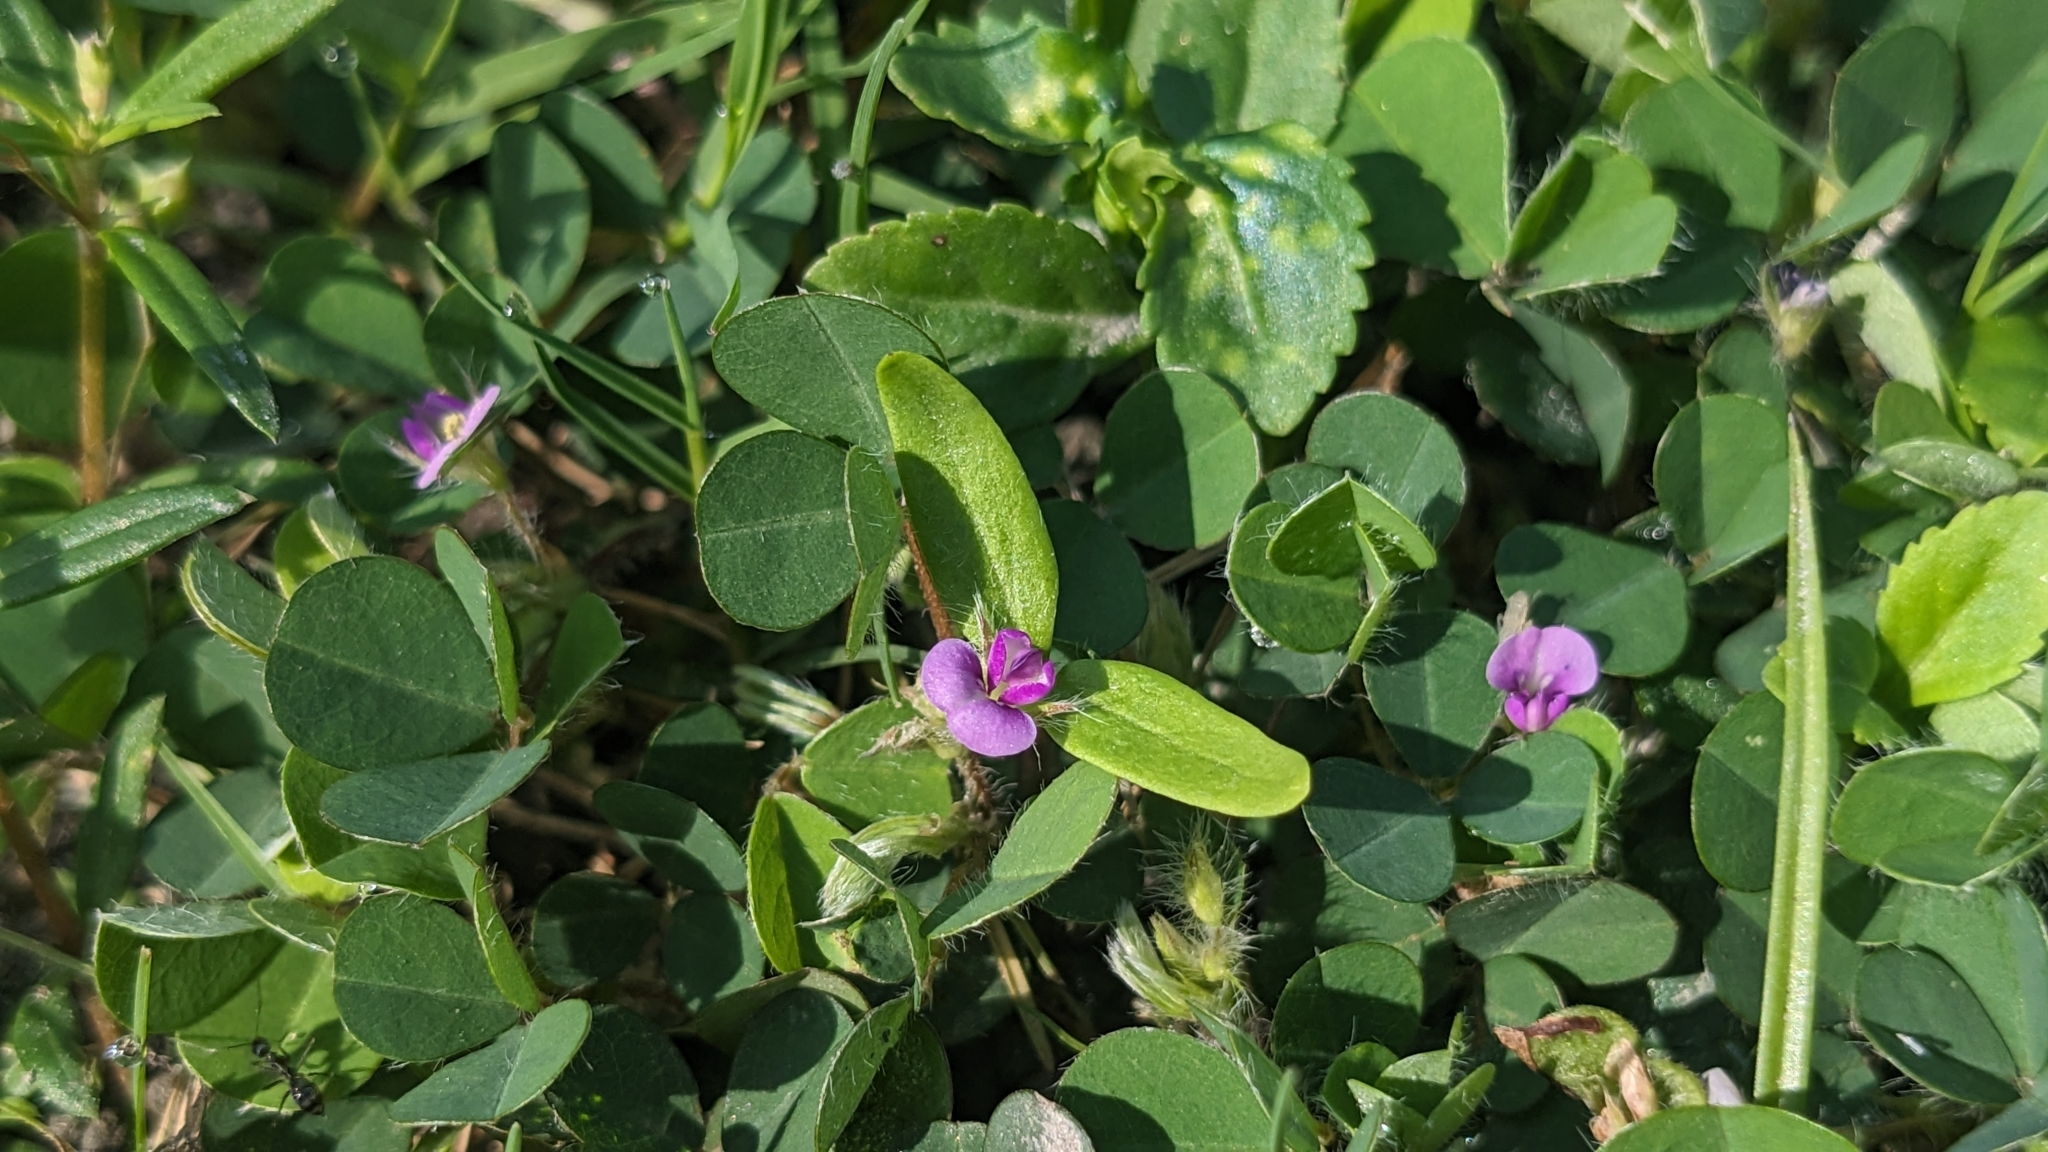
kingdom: Plantae
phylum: Tracheophyta
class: Magnoliopsida
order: Fabales
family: Fabaceae
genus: Grona
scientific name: Grona triflora
